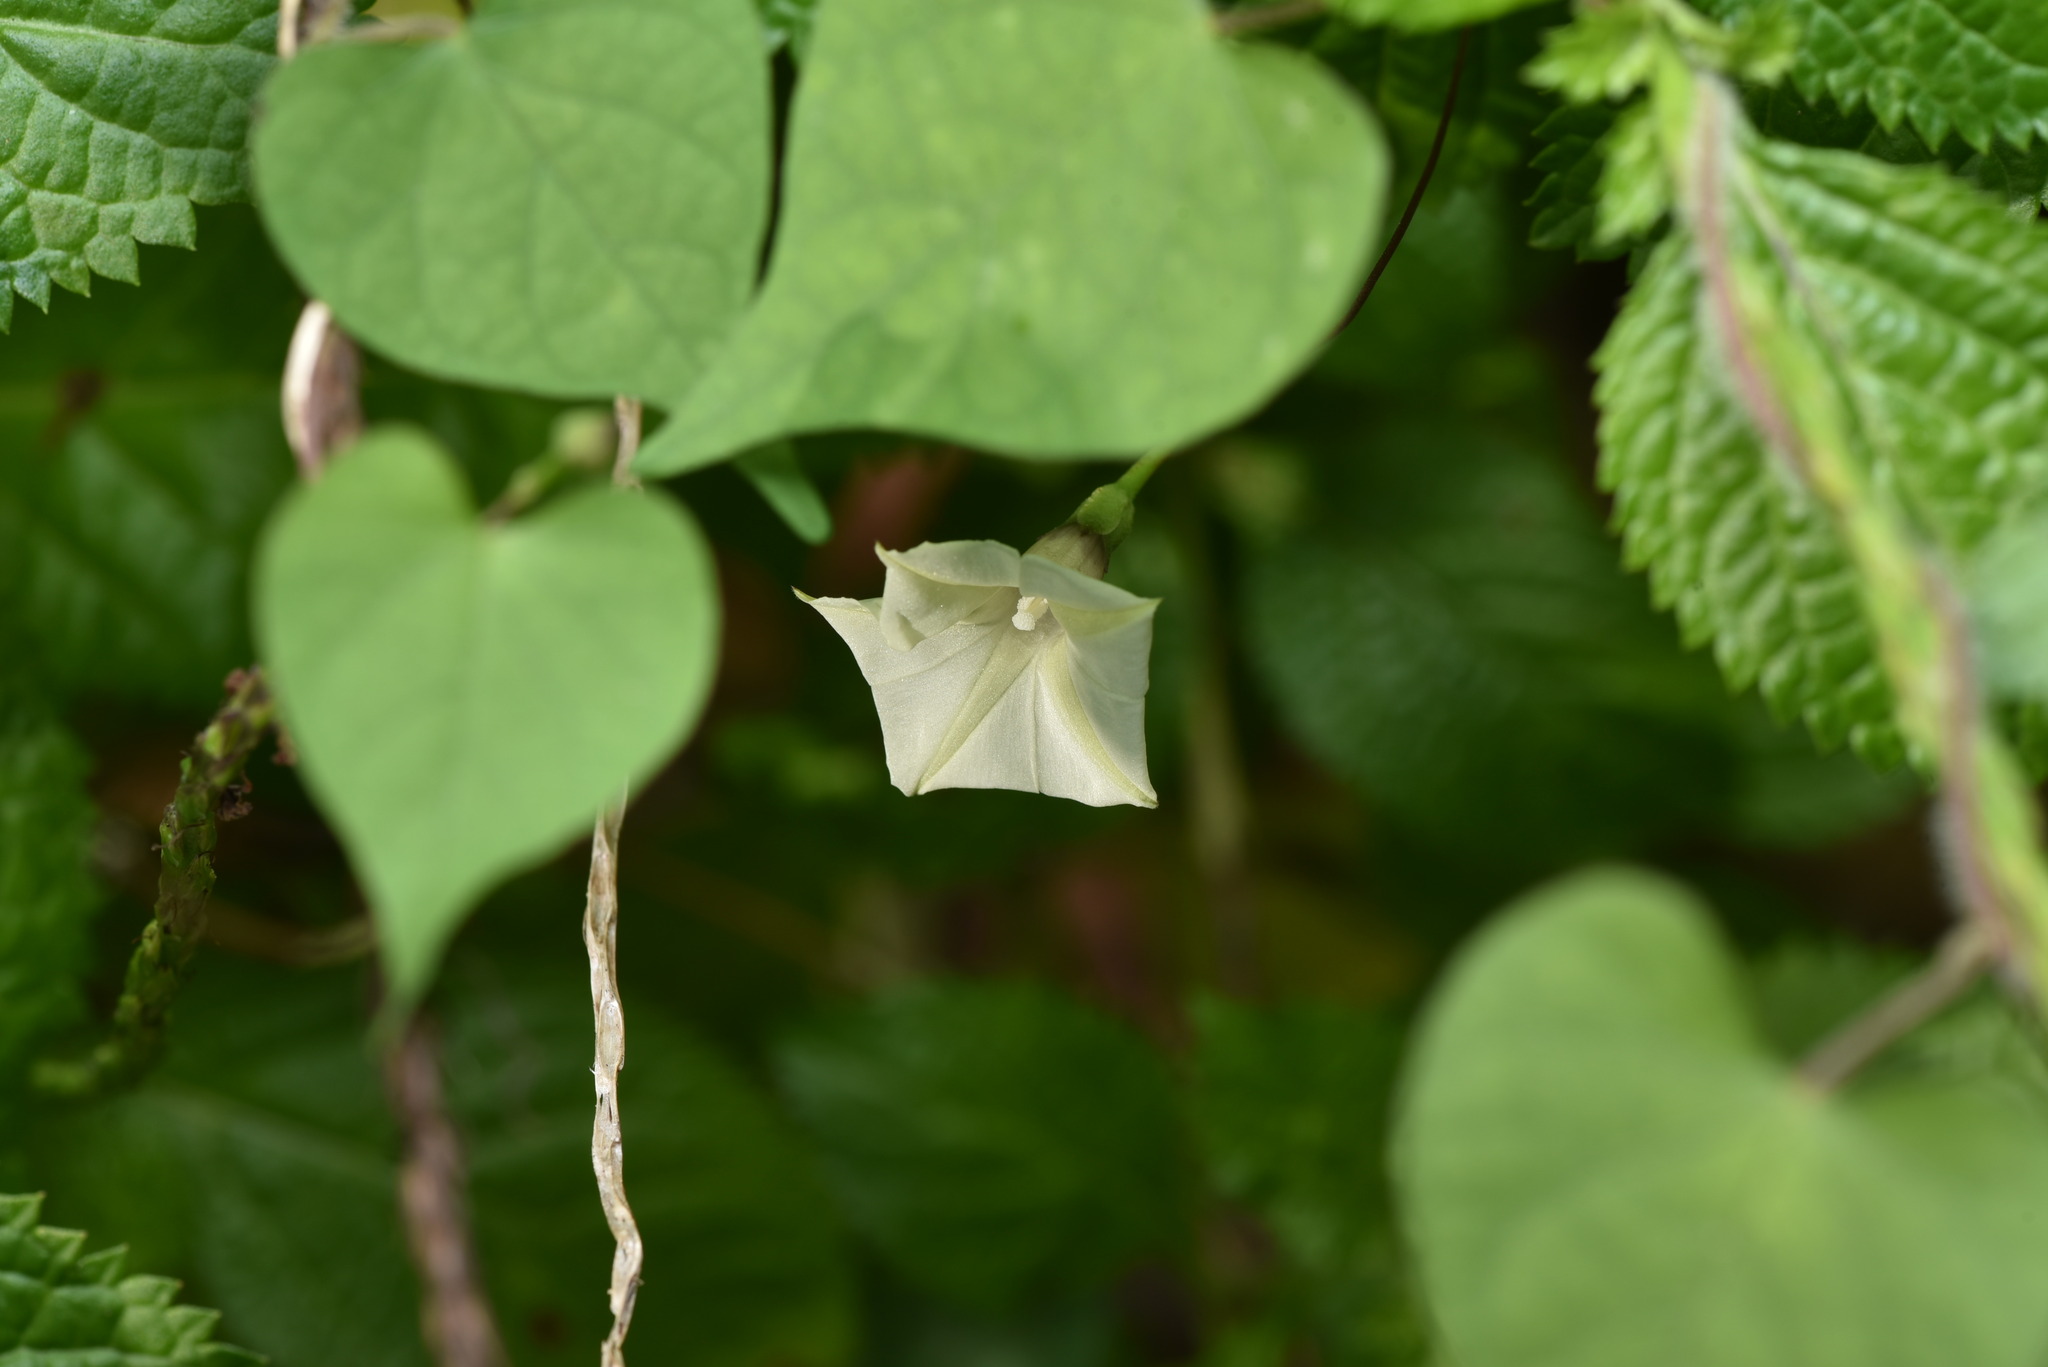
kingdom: Plantae
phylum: Tracheophyta
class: Magnoliopsida
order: Solanales
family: Convolvulaceae
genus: Ipomoea
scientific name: Ipomoea obscura
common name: Obscure morning-glory
